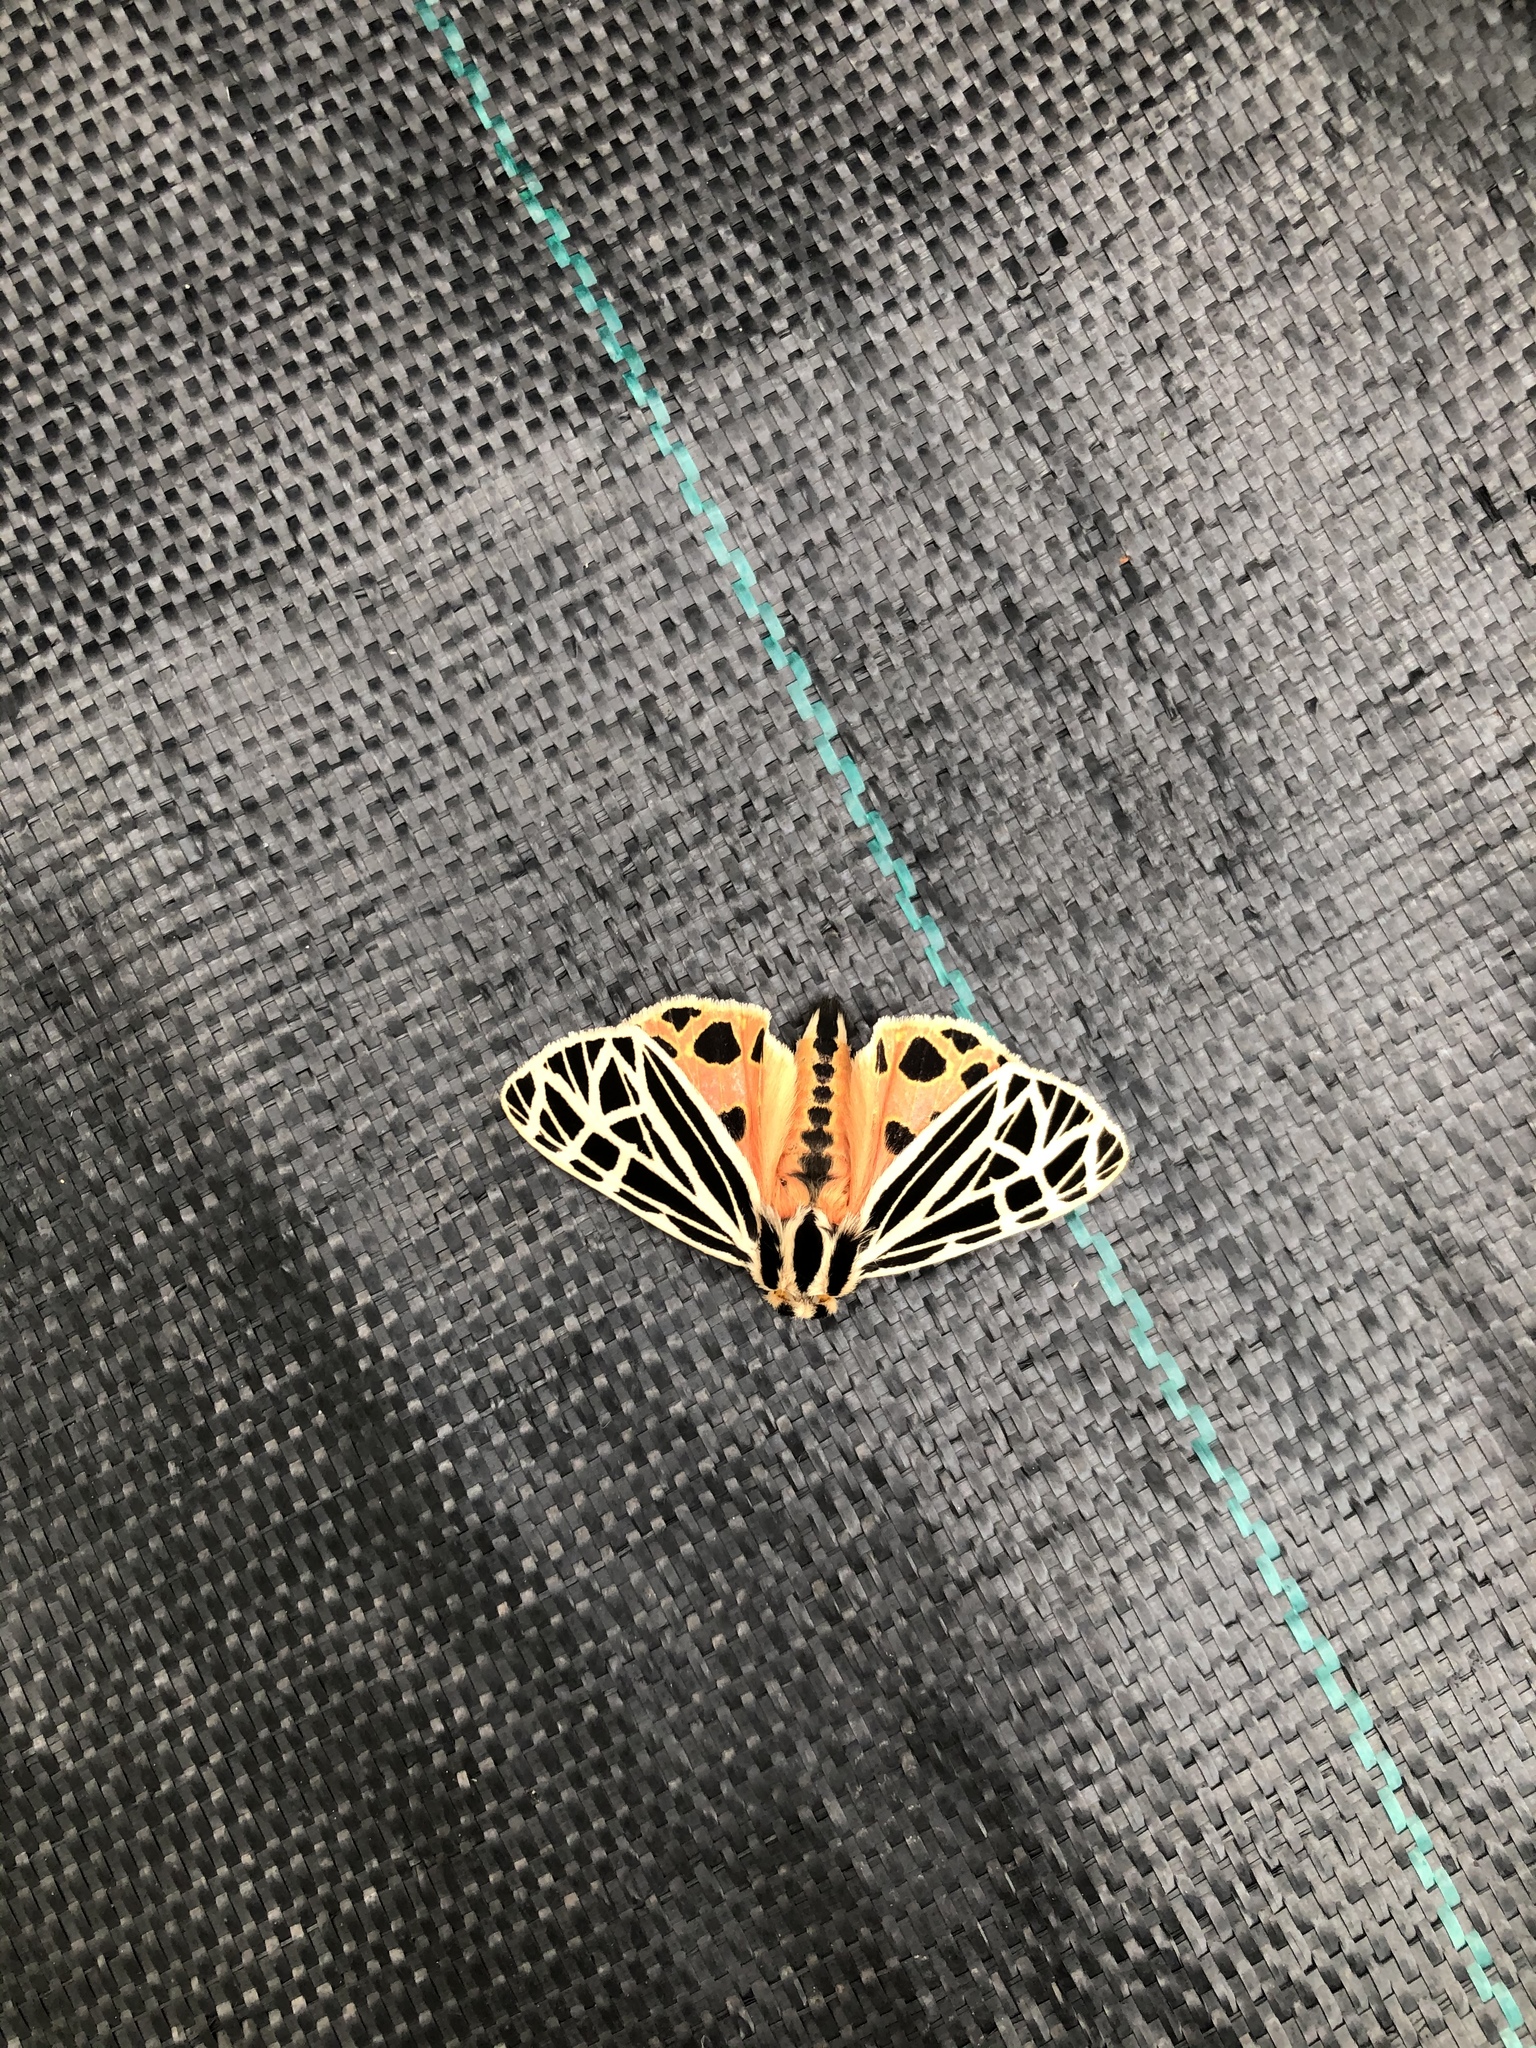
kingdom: Animalia
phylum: Arthropoda
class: Insecta
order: Lepidoptera
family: Erebidae
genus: Grammia
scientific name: Grammia virgo
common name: Virgin tiger moth
